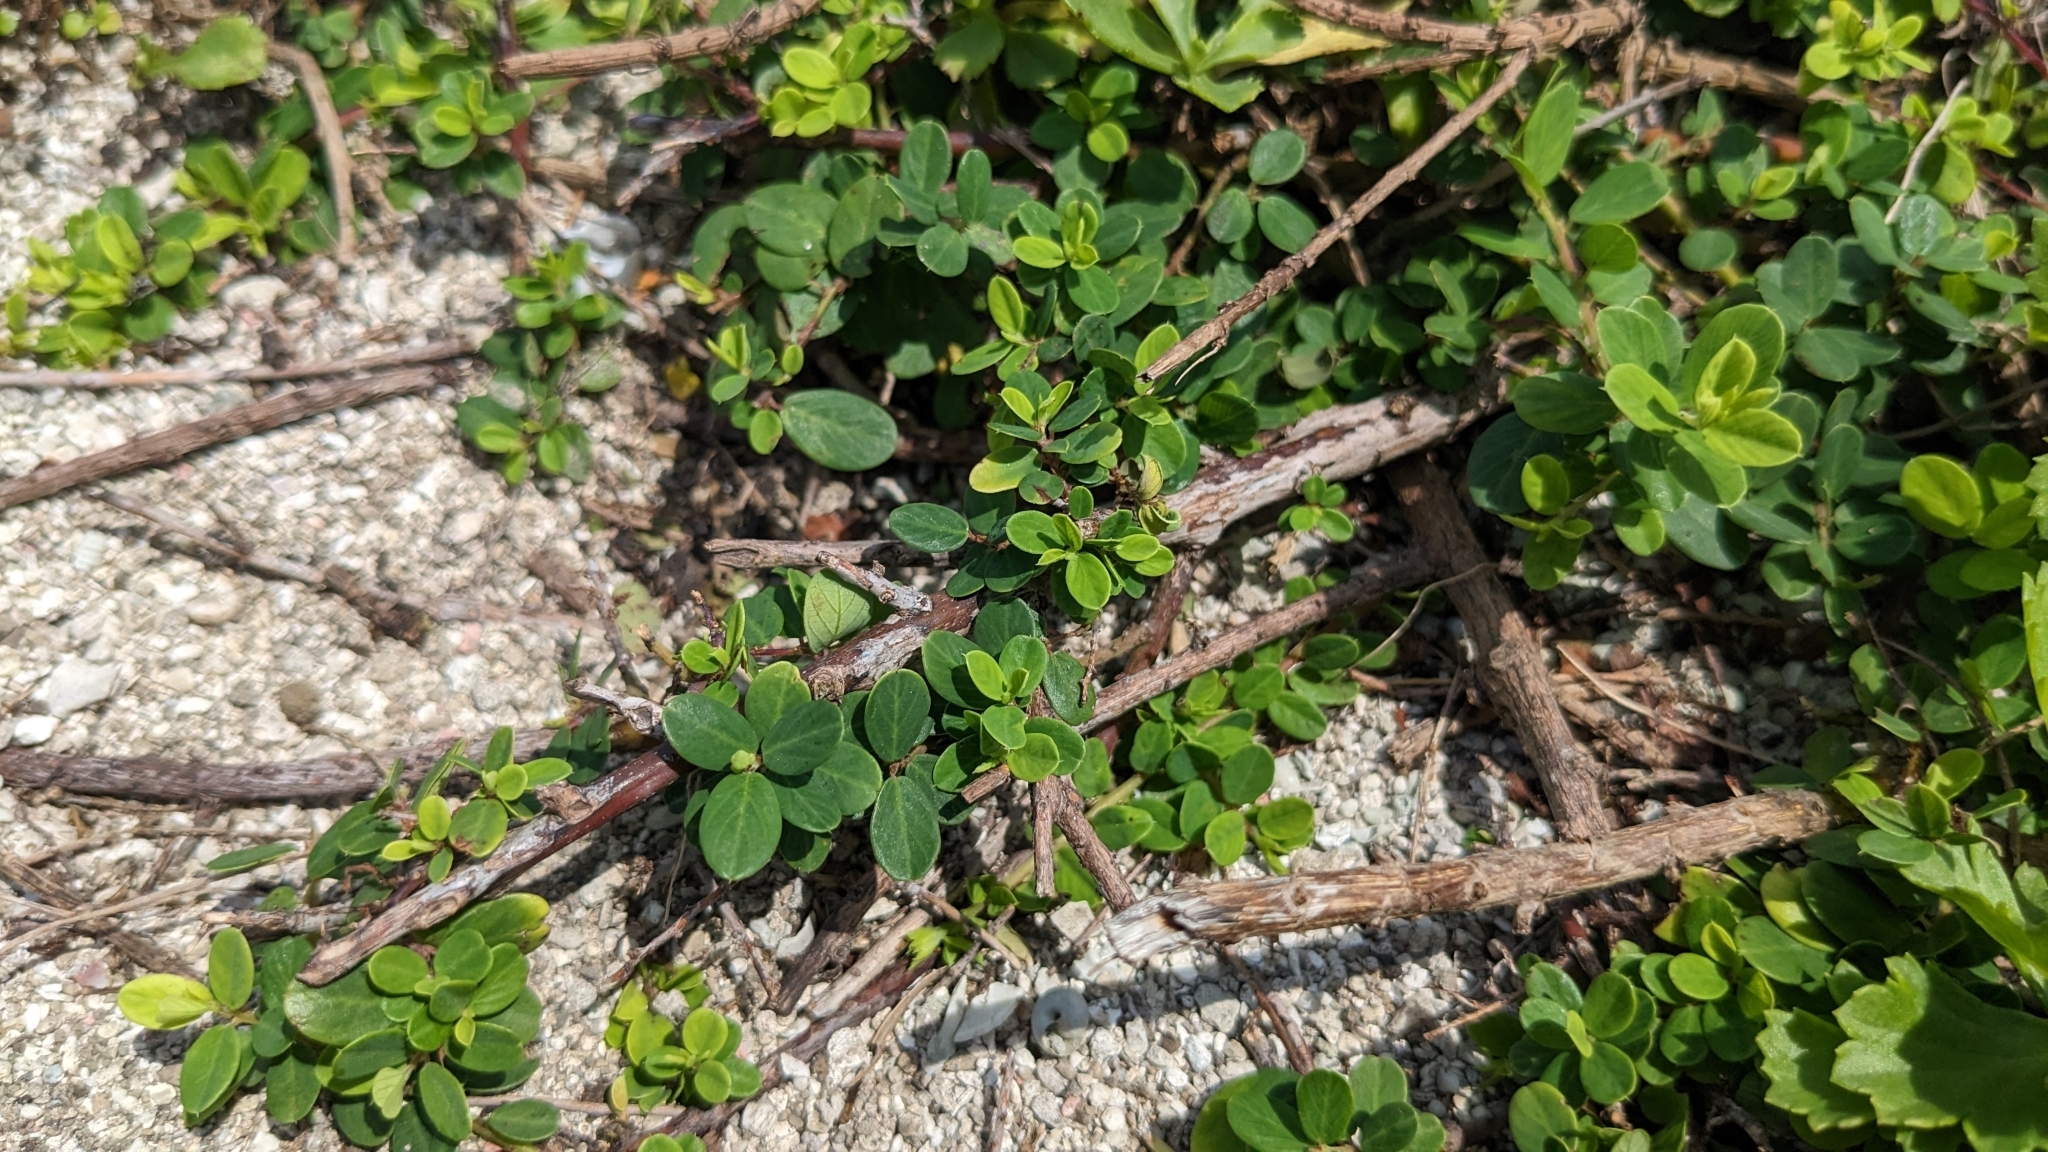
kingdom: Plantae
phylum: Tracheophyta
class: Magnoliopsida
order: Rosales
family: Rhamnaceae
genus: Berchemia
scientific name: Berchemia lineata
